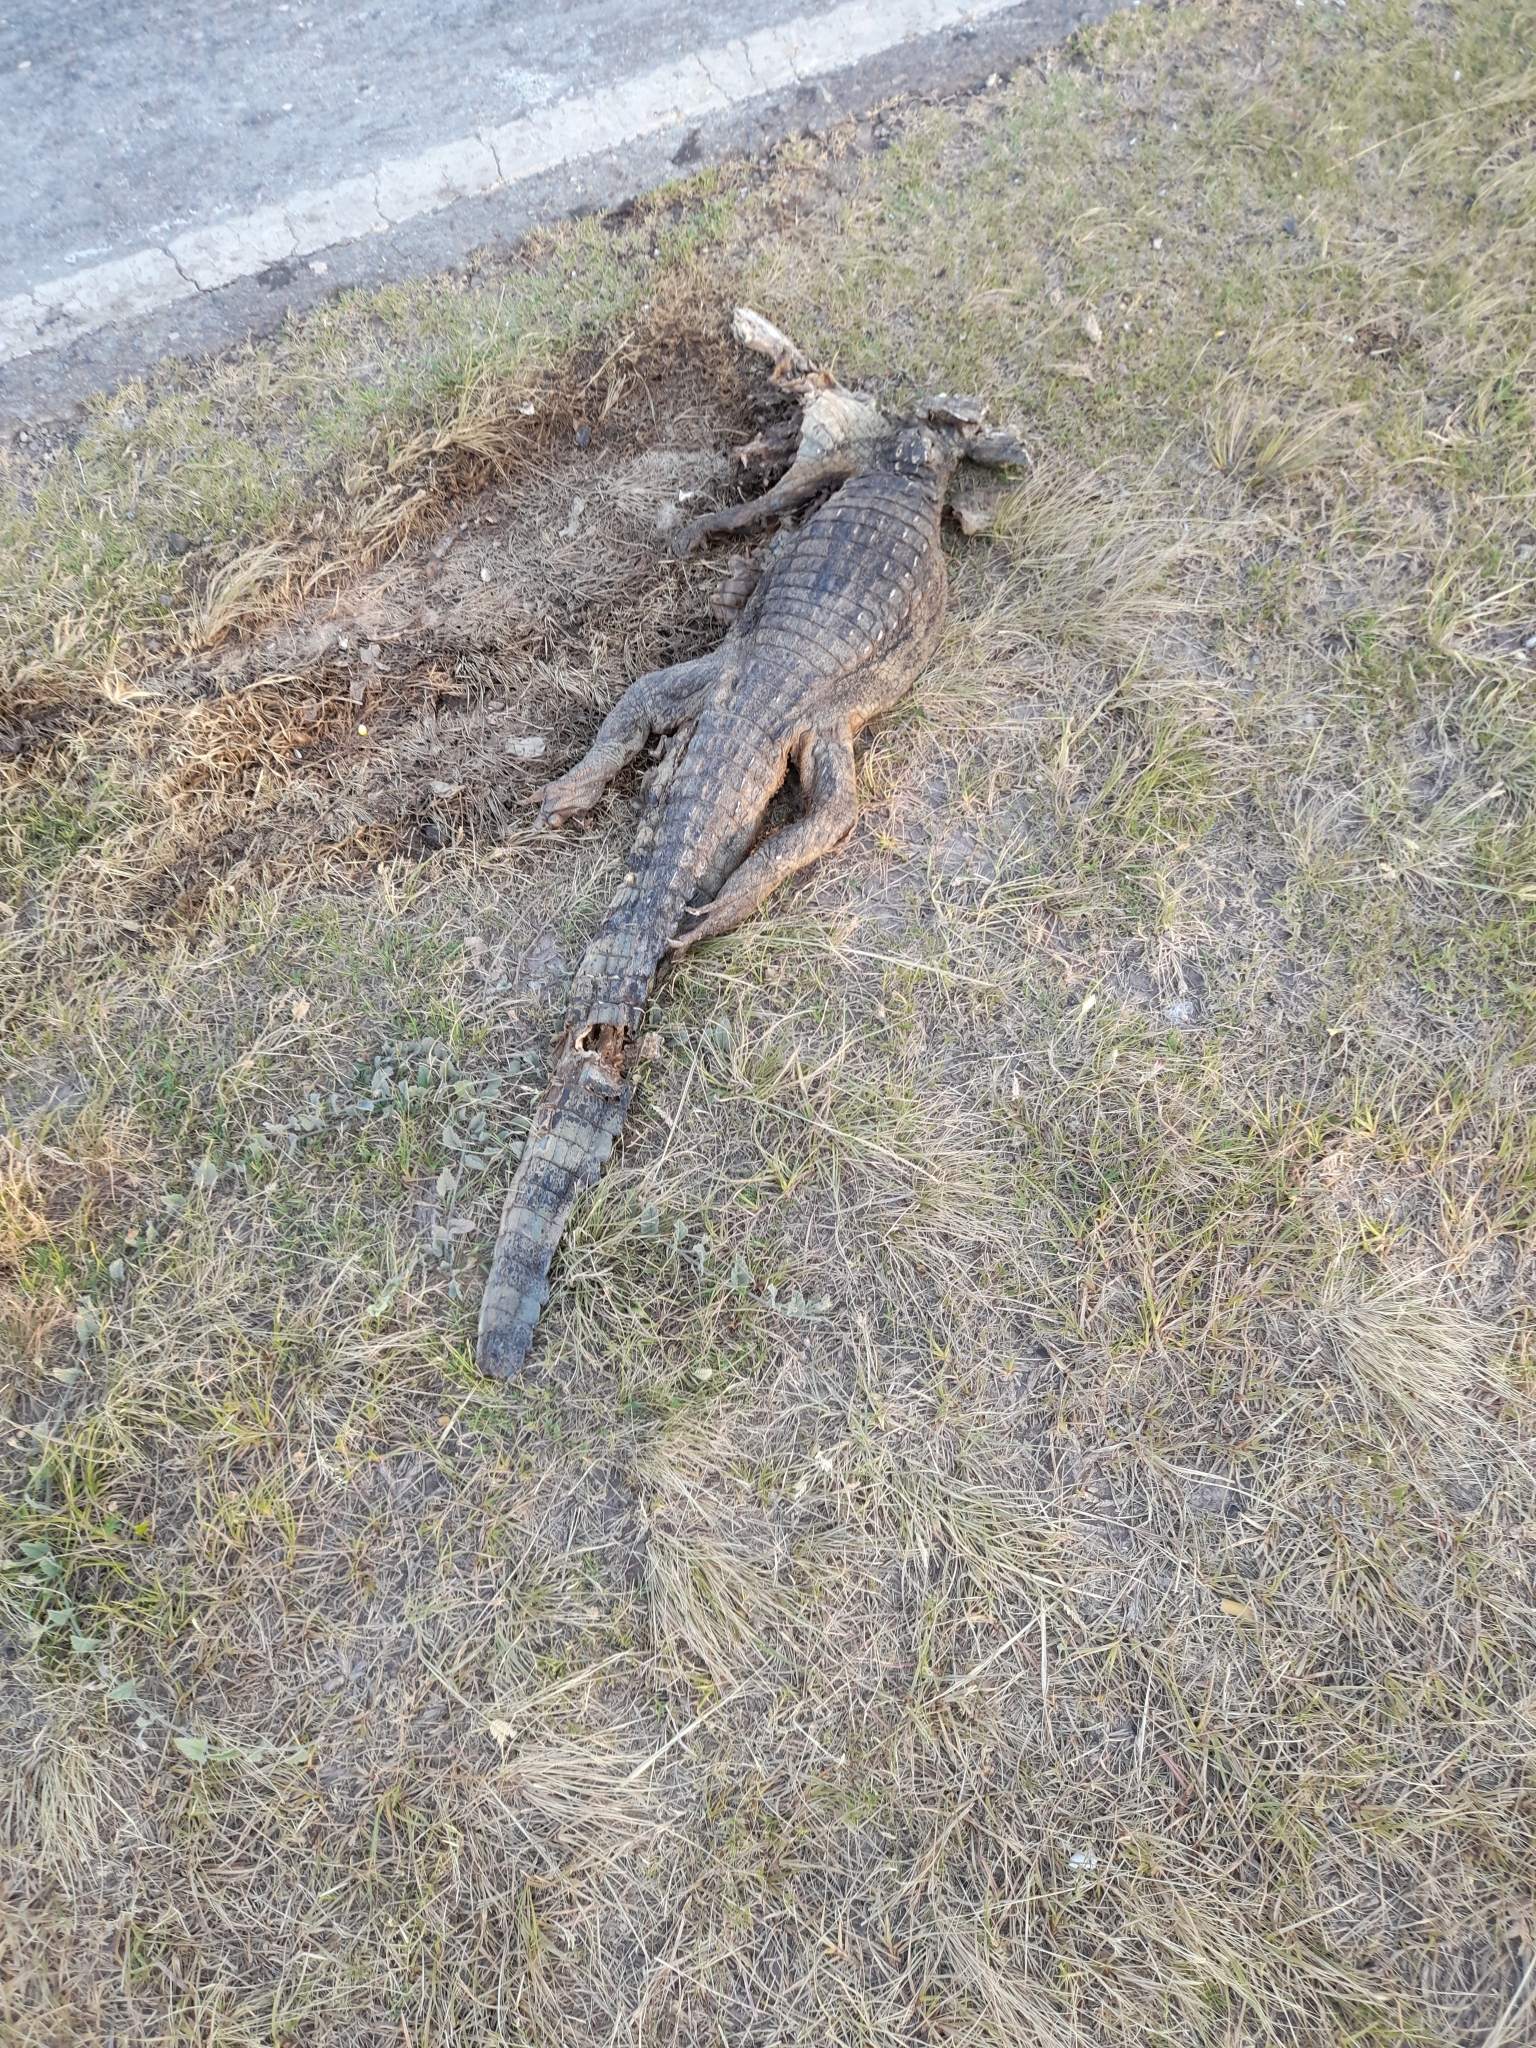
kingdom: Animalia
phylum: Chordata
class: Crocodylia
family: Alligatoridae
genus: Caiman
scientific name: Caiman latirostris
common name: Broad-snouted caiman
